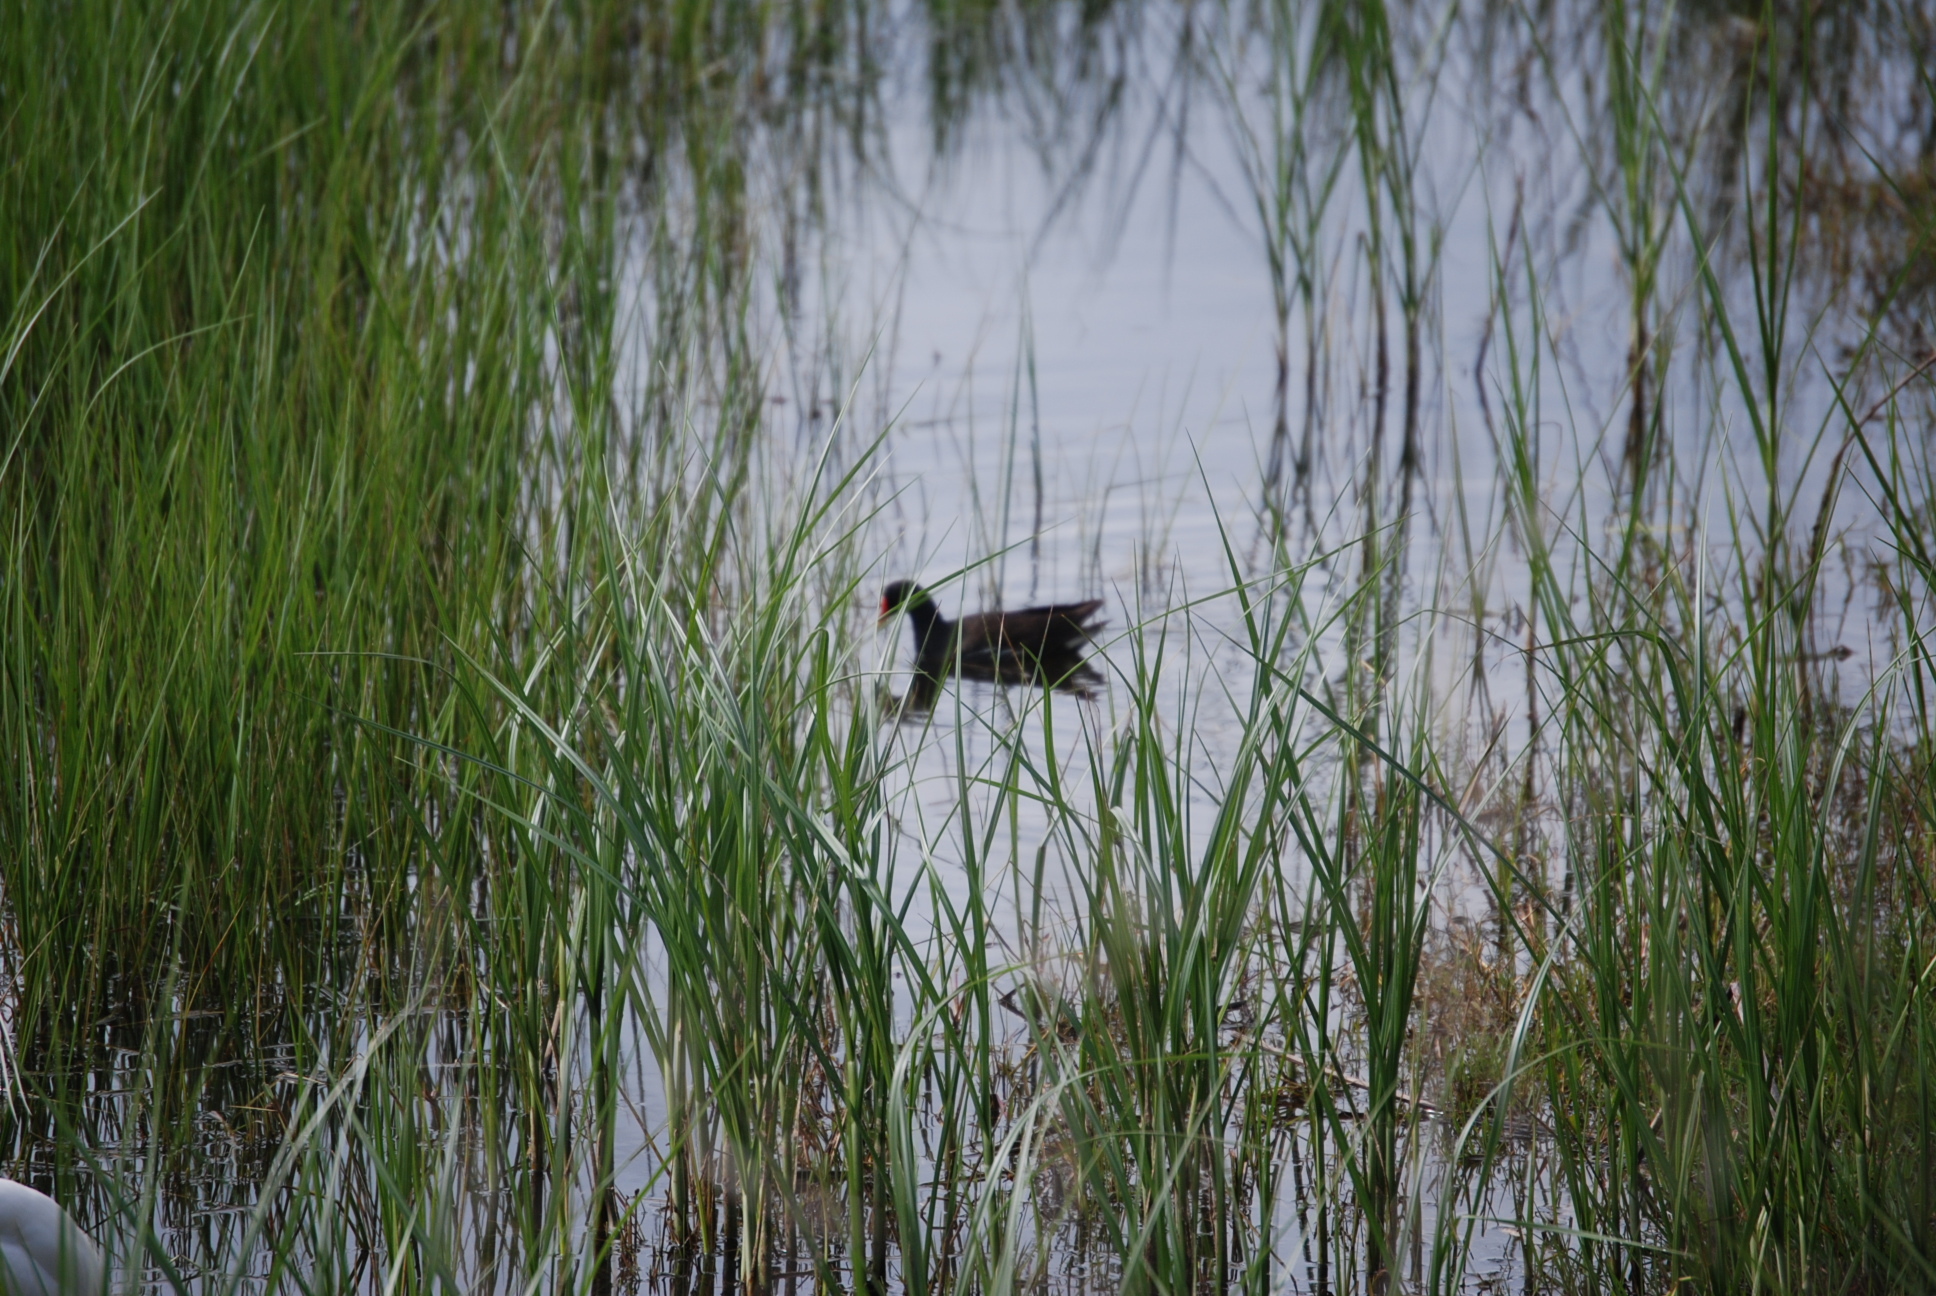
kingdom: Animalia
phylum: Chordata
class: Aves
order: Gruiformes
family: Rallidae
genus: Gallinula
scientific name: Gallinula chloropus
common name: Common moorhen
